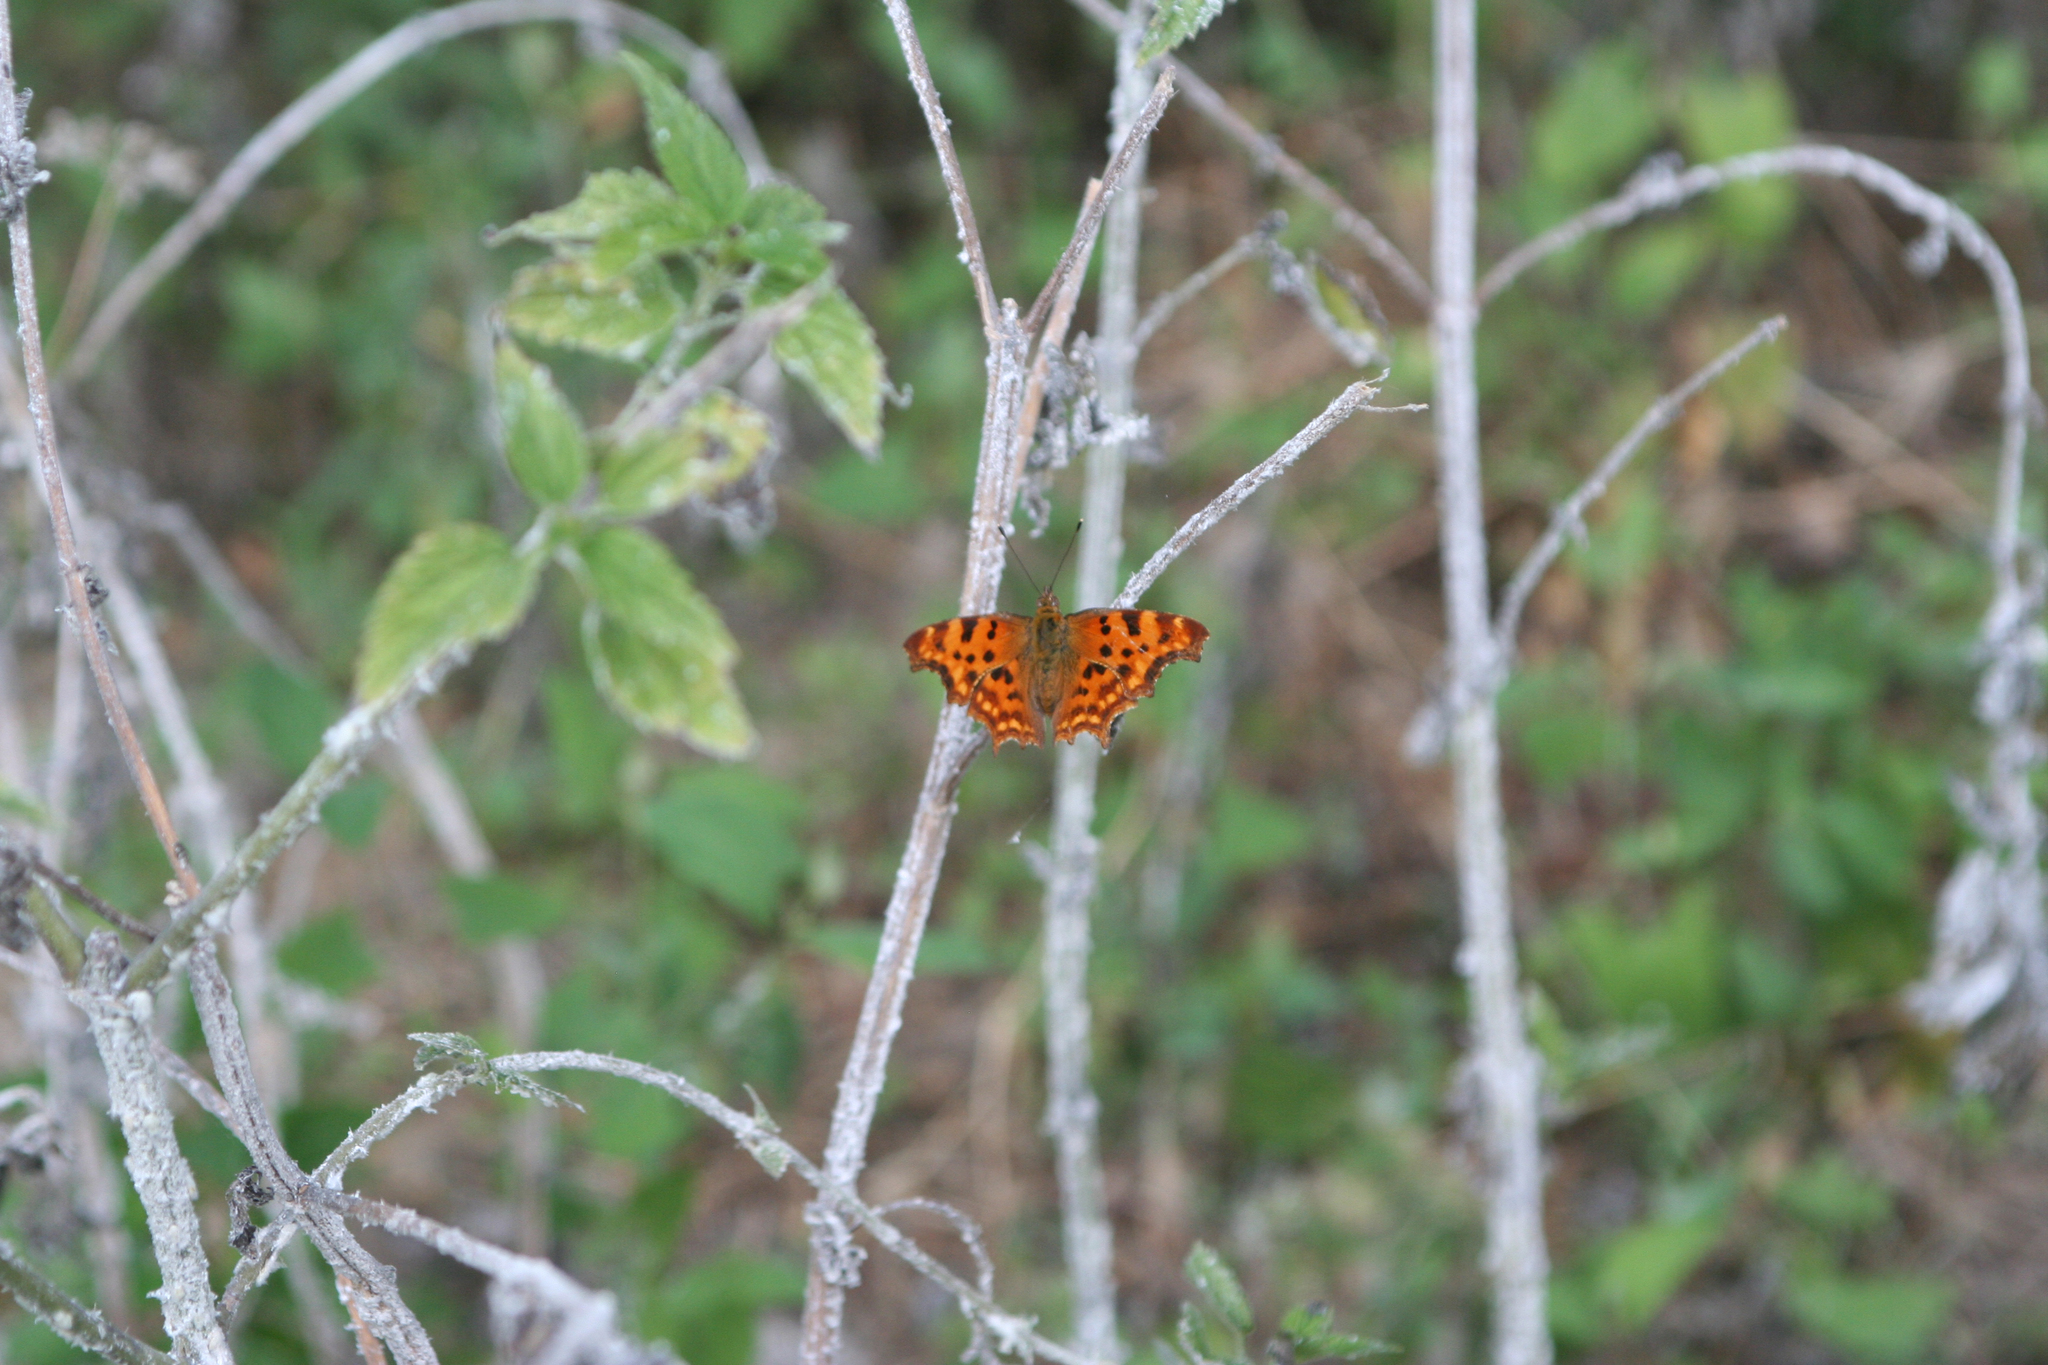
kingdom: Animalia
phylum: Arthropoda
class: Insecta
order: Lepidoptera
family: Nymphalidae
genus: Polygonia
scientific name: Polygonia c-album
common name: Comma
